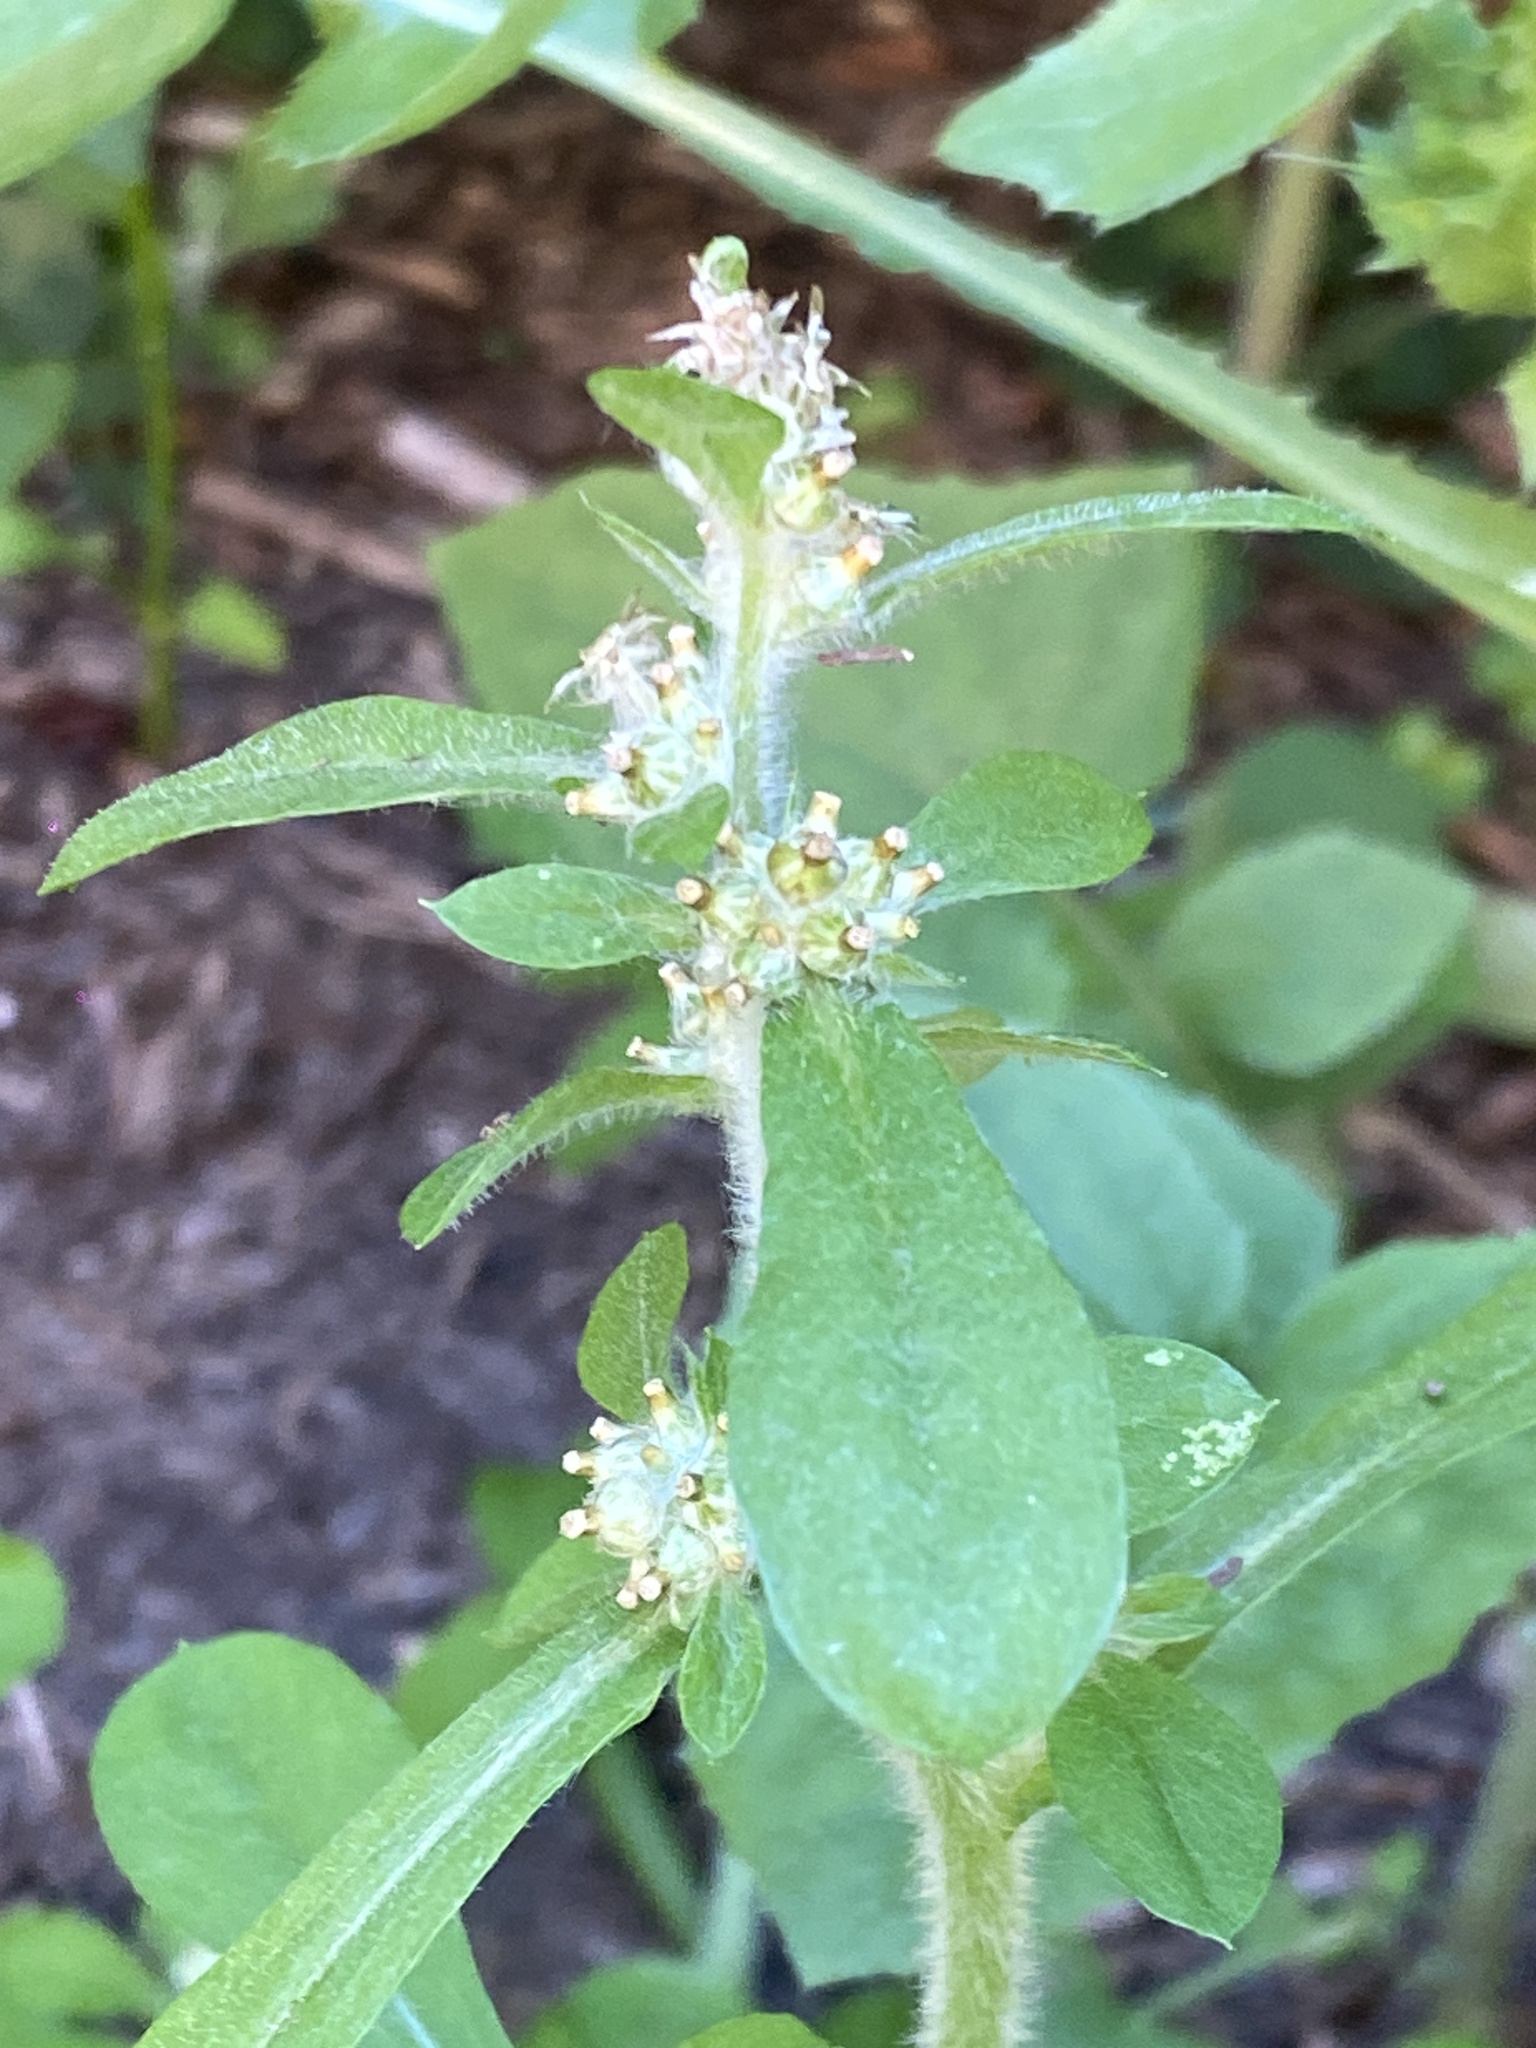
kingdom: Plantae
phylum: Tracheophyta
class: Magnoliopsida
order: Asterales
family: Asteraceae
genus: Gamochaeta
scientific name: Gamochaeta pensylvanica
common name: Pennsylvania everlasting
